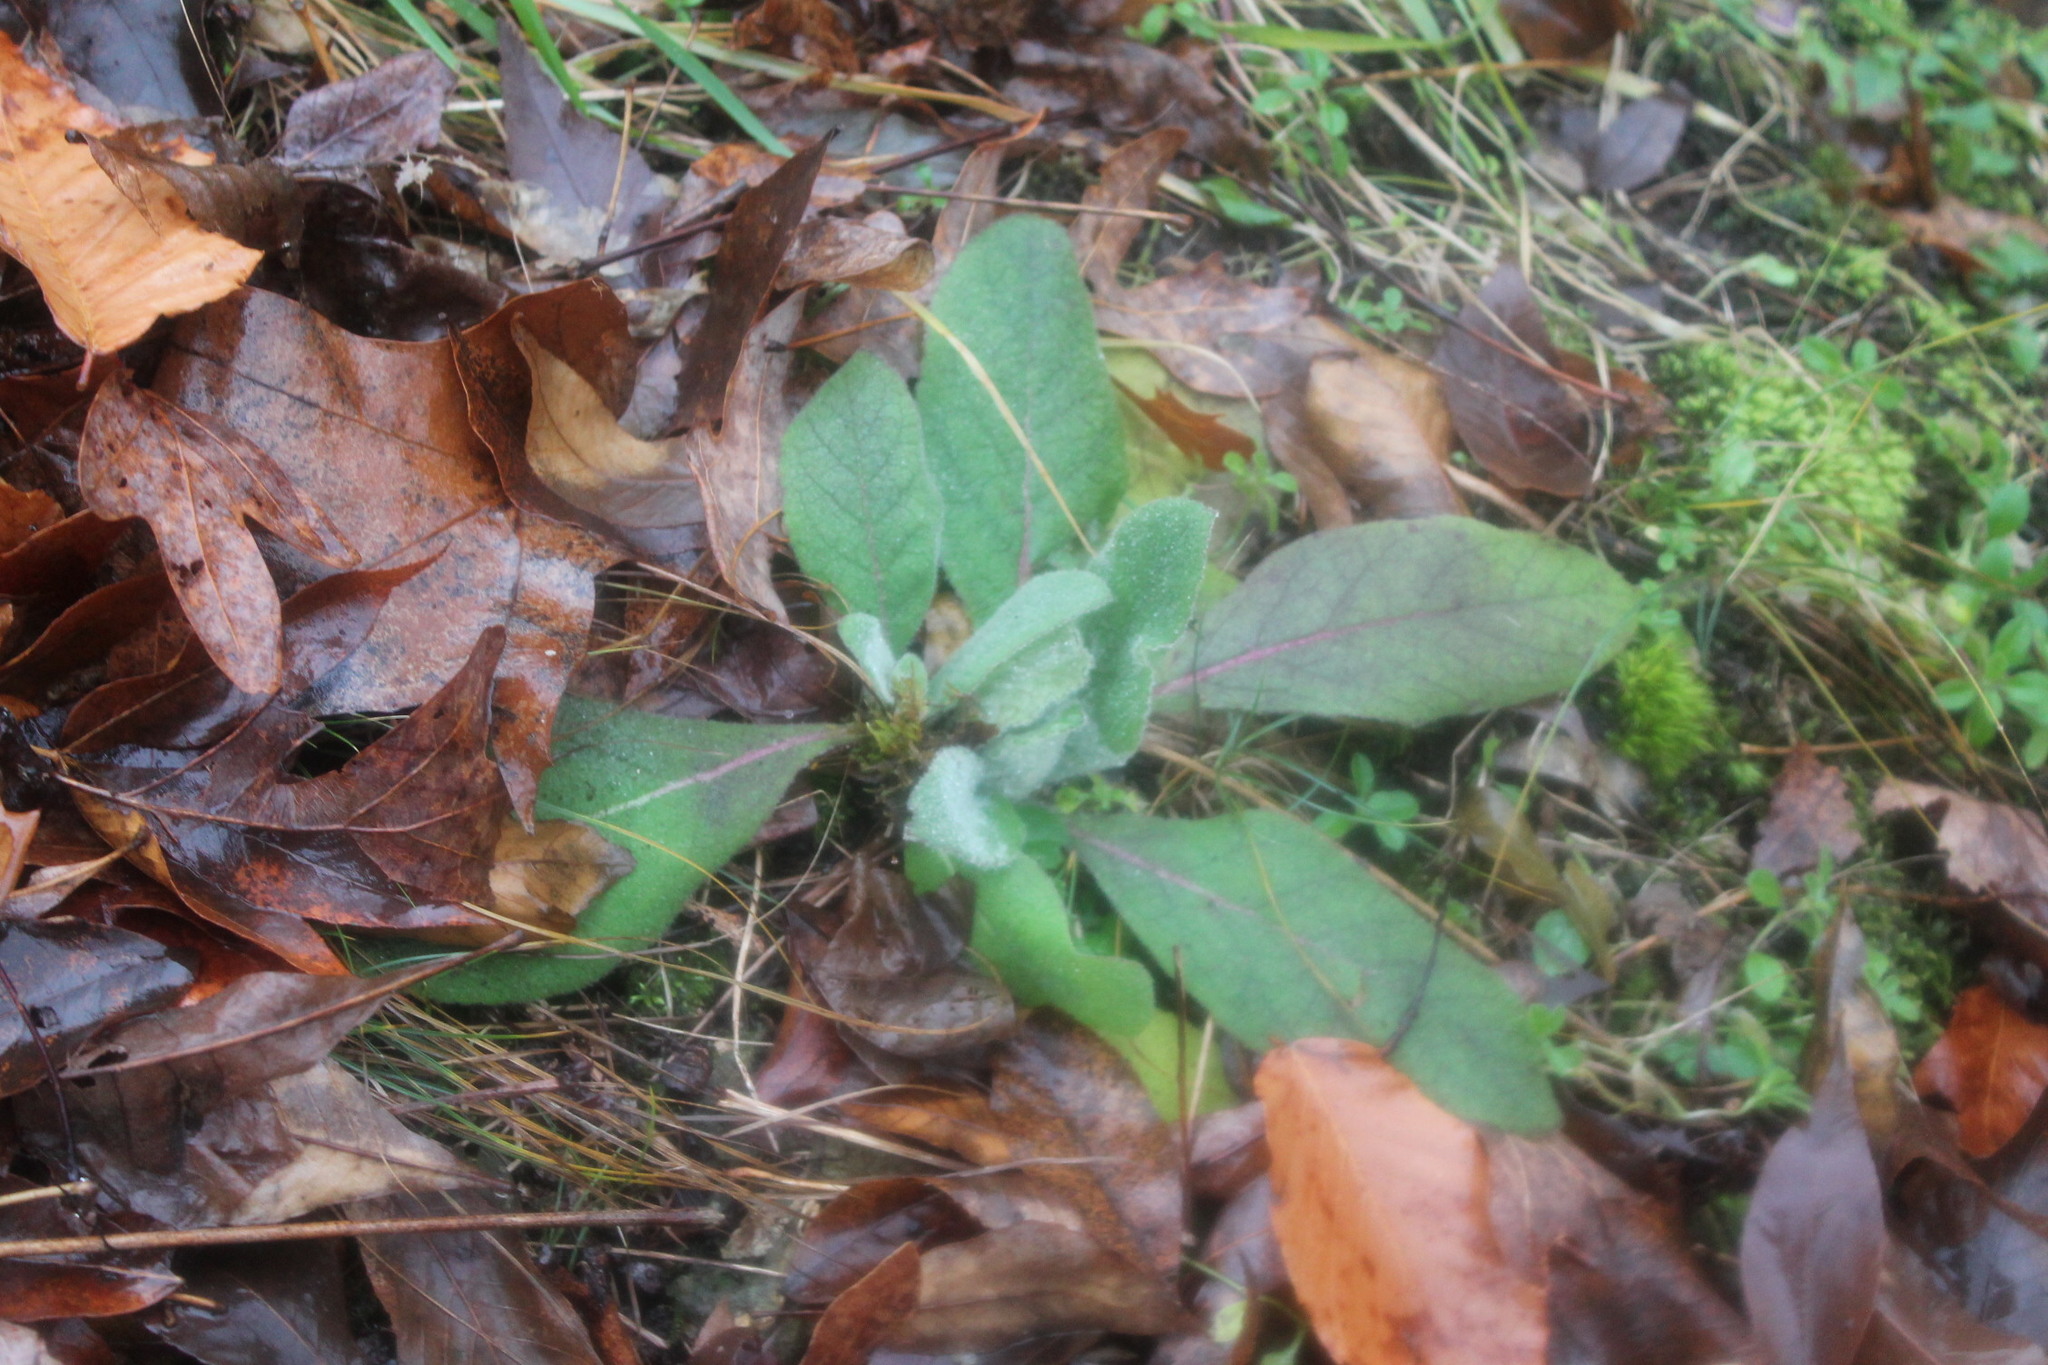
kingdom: Plantae
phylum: Tracheophyta
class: Magnoliopsida
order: Lamiales
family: Scrophulariaceae
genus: Verbascum
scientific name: Verbascum thapsus
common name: Common mullein
